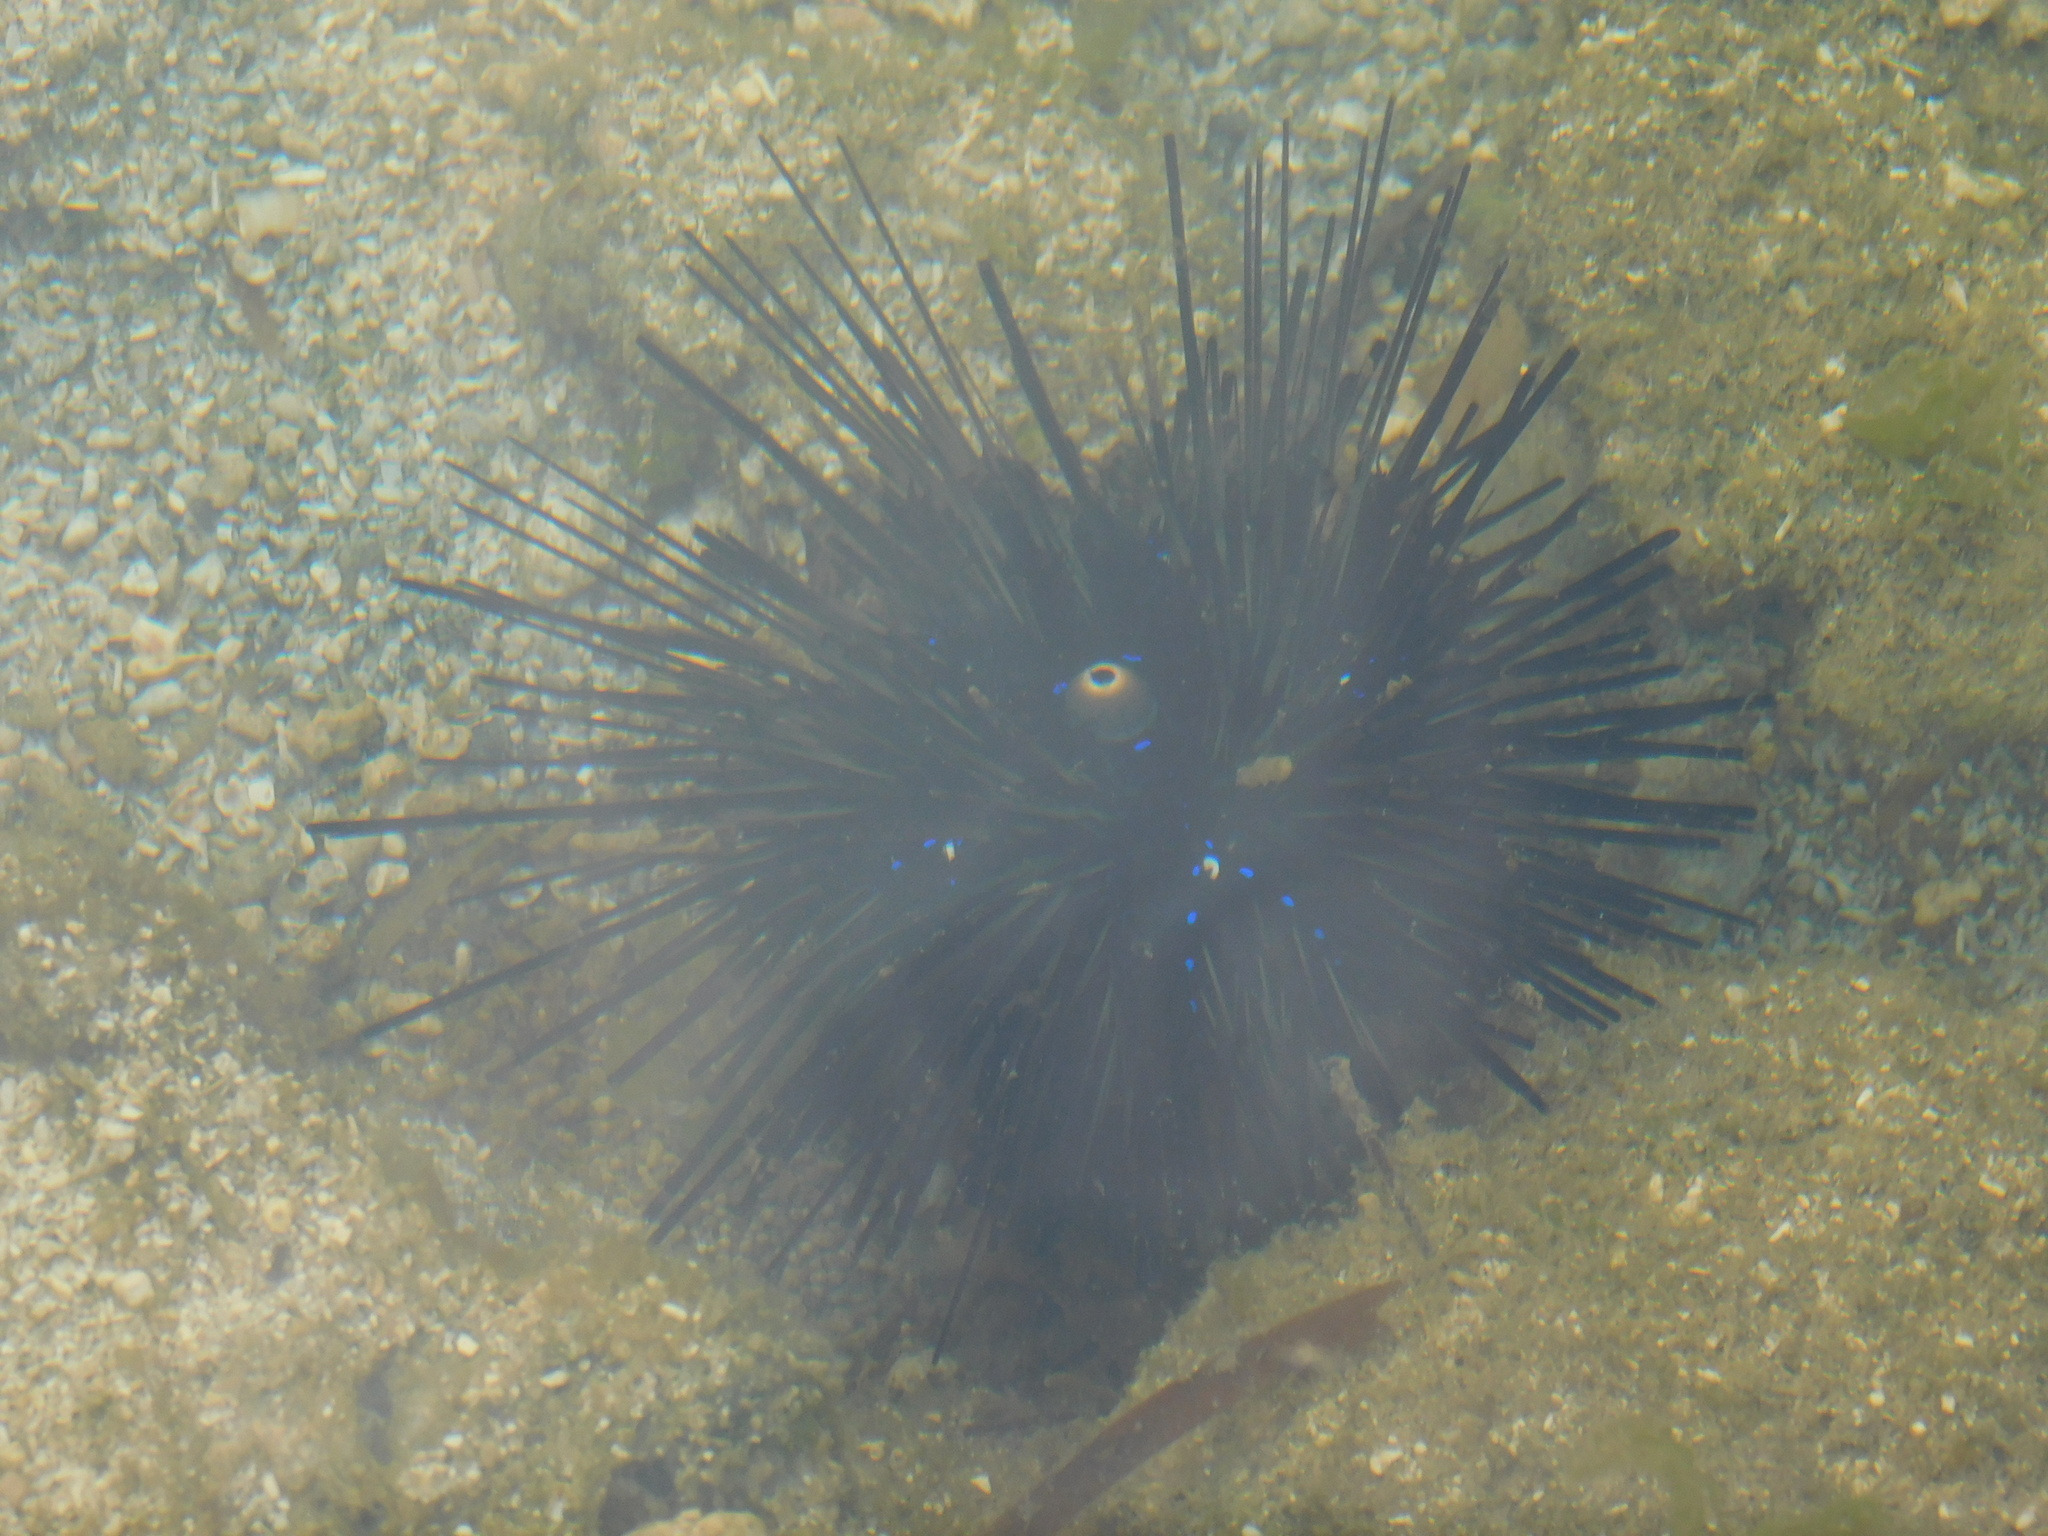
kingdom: Animalia
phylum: Echinodermata
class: Echinoidea
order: Diadematoida
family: Diadematidae
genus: Diadema
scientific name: Diadema setosum
